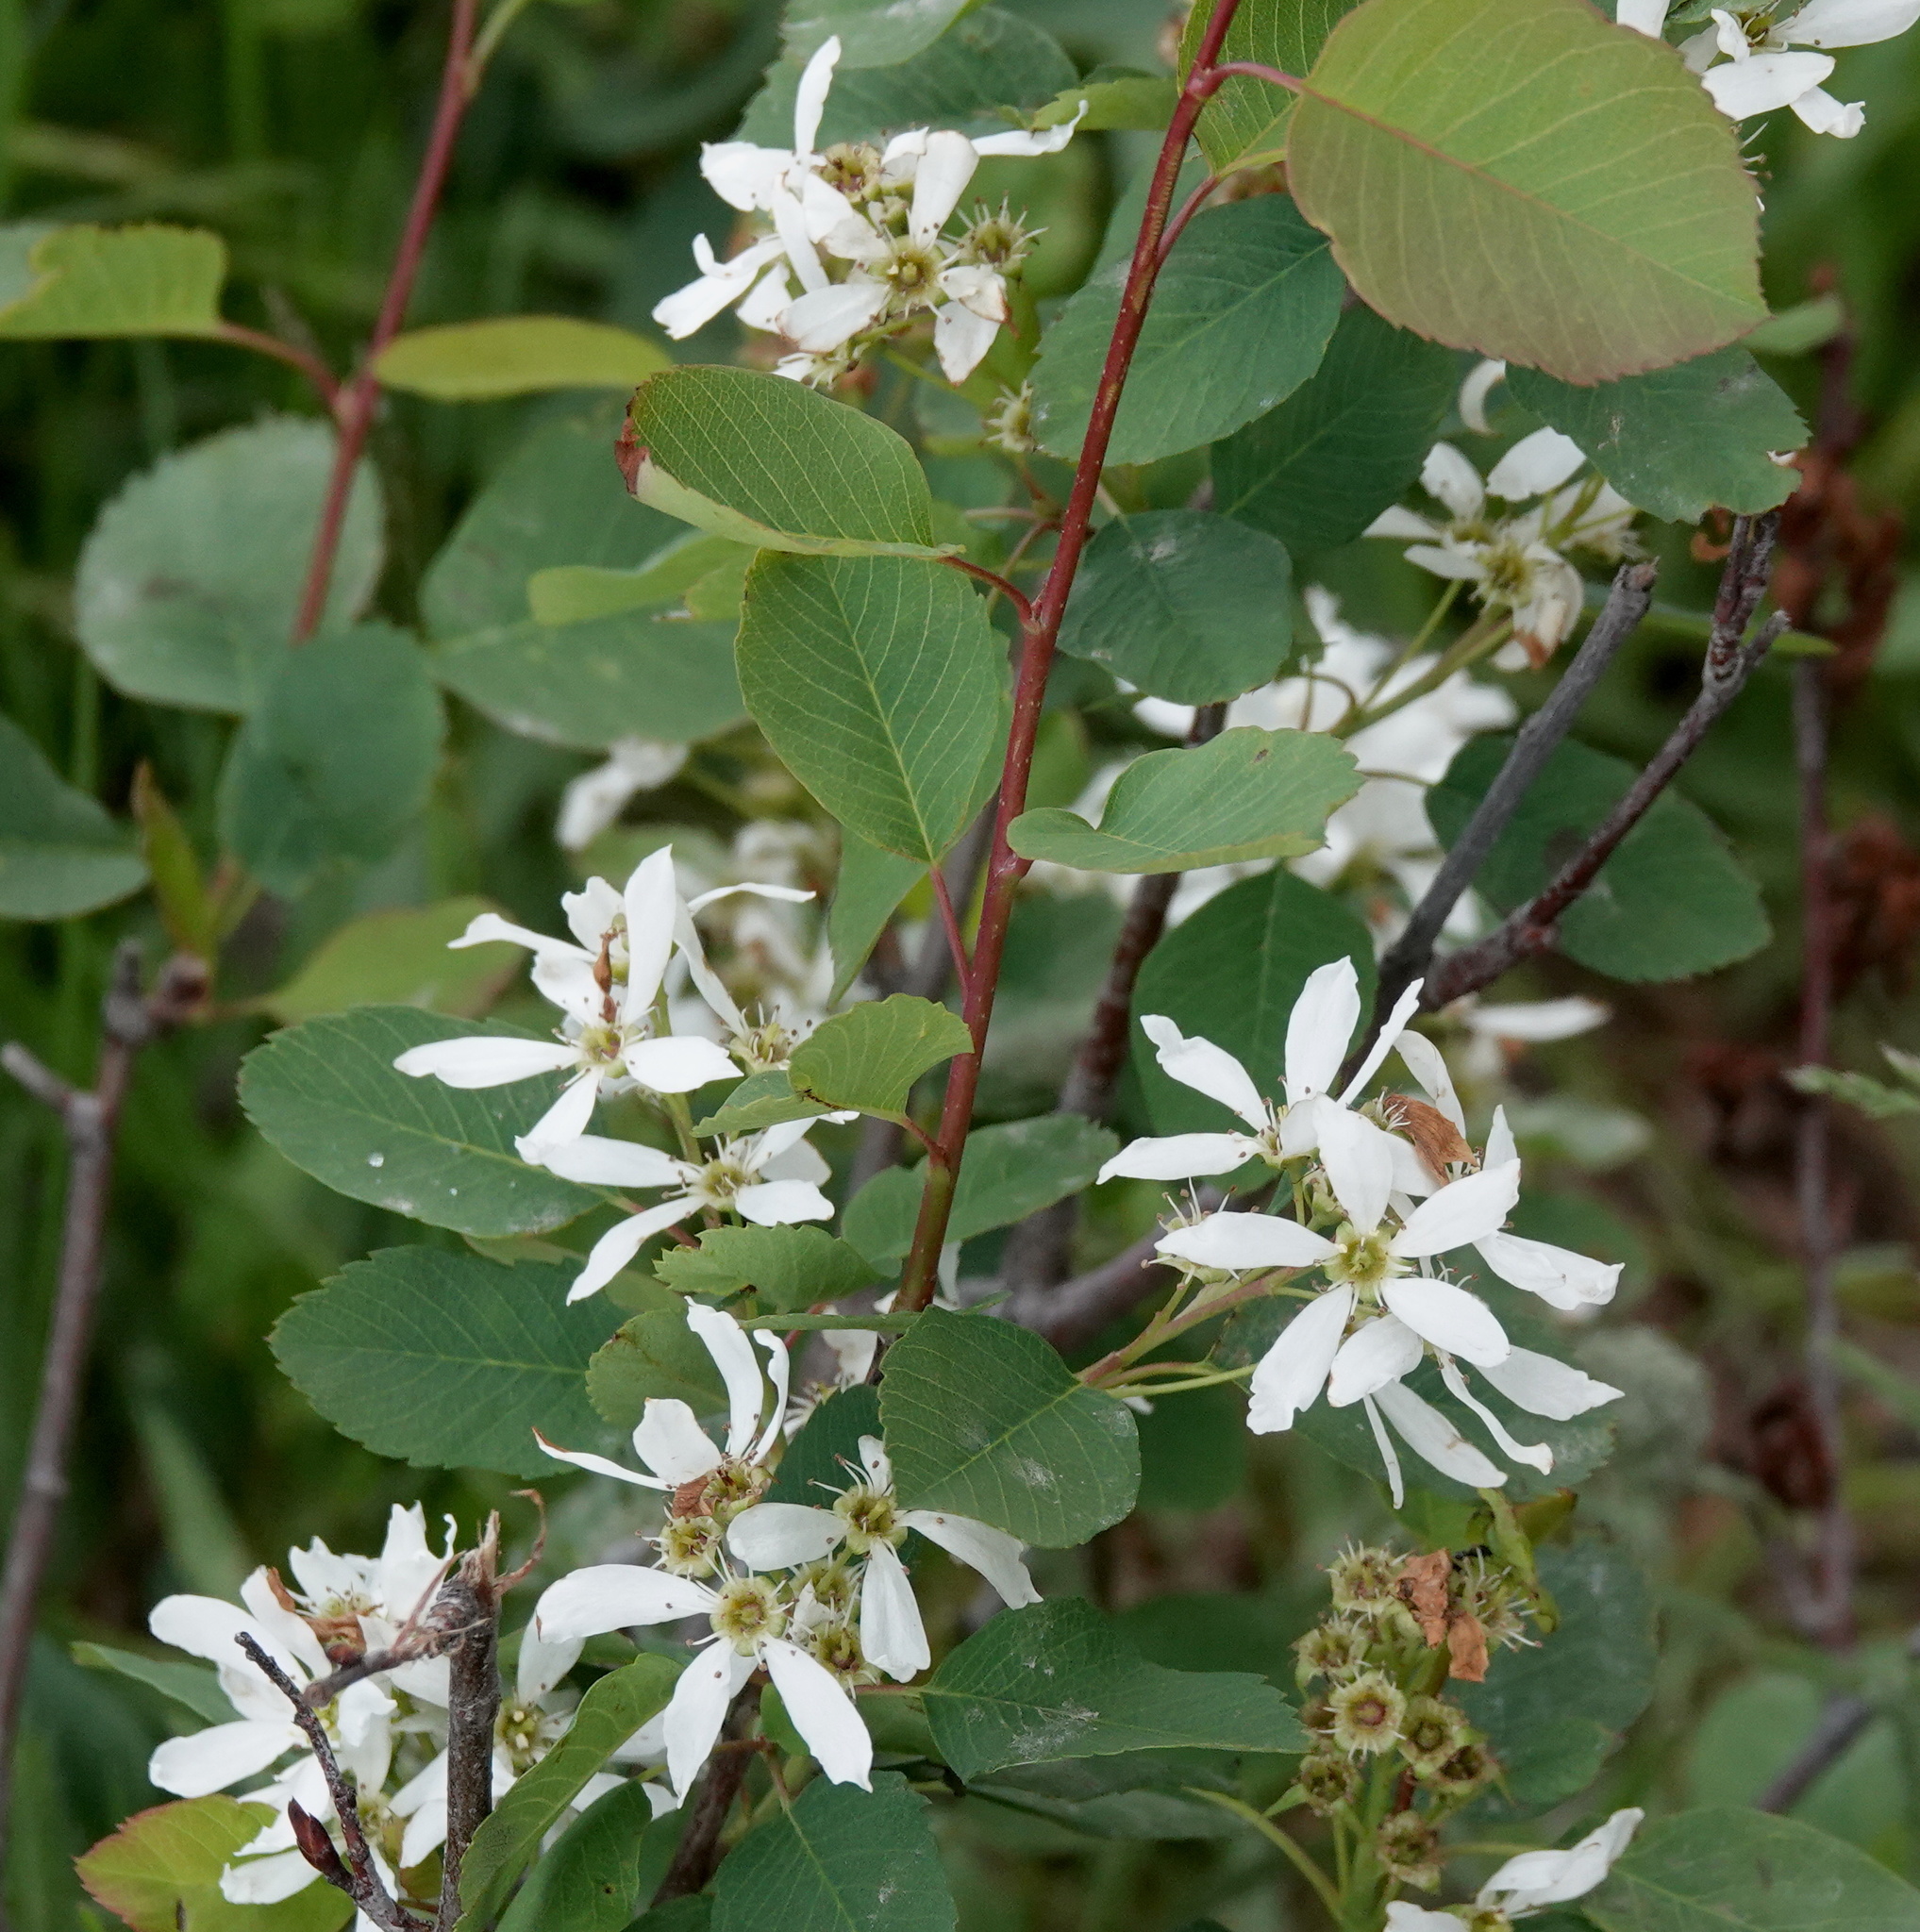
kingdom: Plantae
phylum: Tracheophyta
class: Magnoliopsida
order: Rosales
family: Rosaceae
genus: Amelanchier
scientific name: Amelanchier alnifolia
